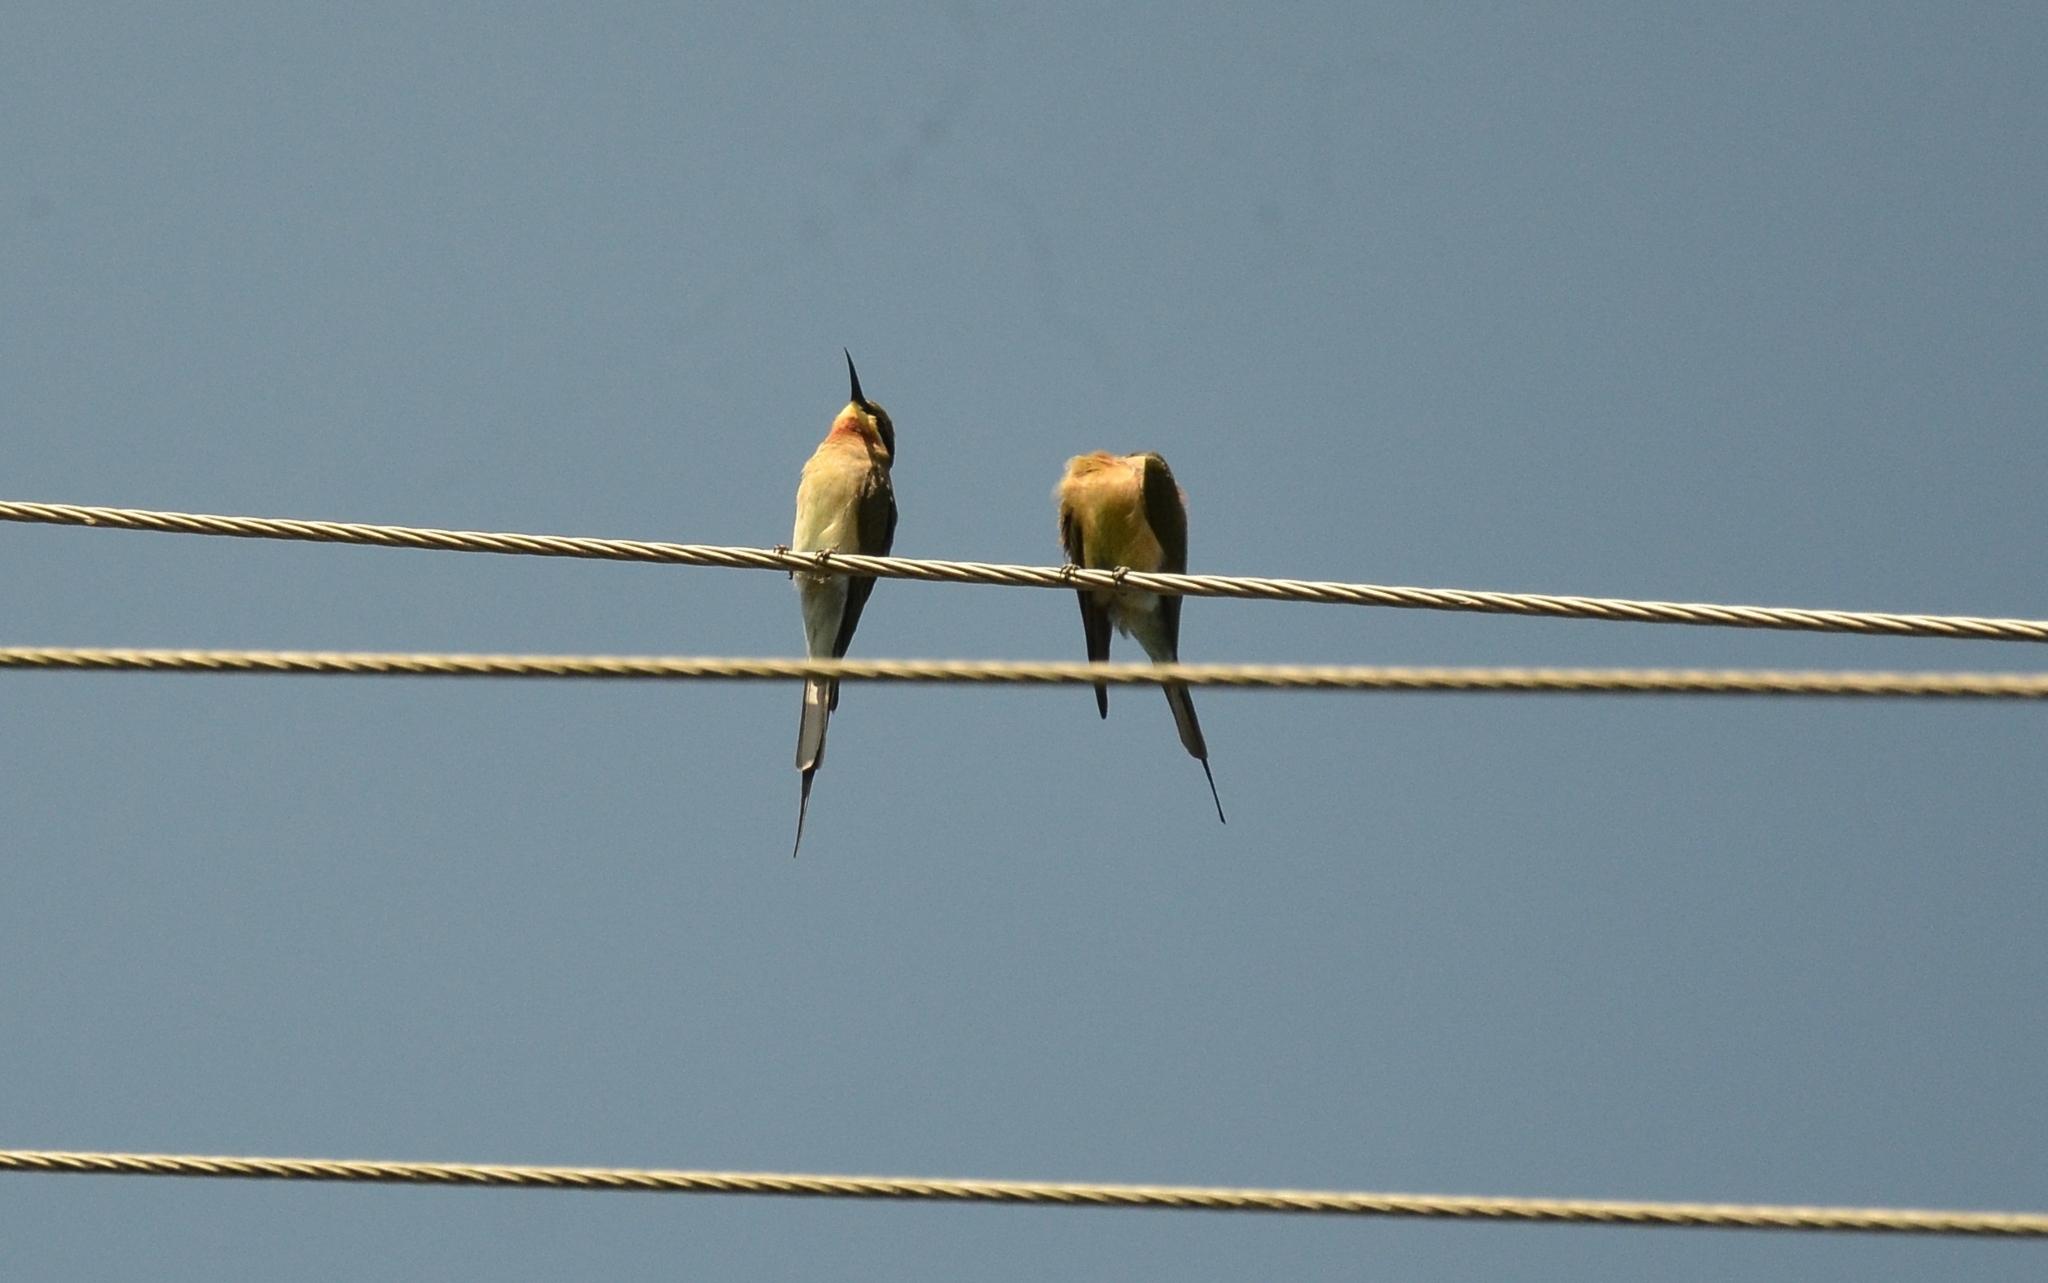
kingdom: Animalia
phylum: Chordata
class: Aves
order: Coraciiformes
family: Meropidae
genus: Merops
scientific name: Merops philippinus
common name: Blue-tailed bee-eater
